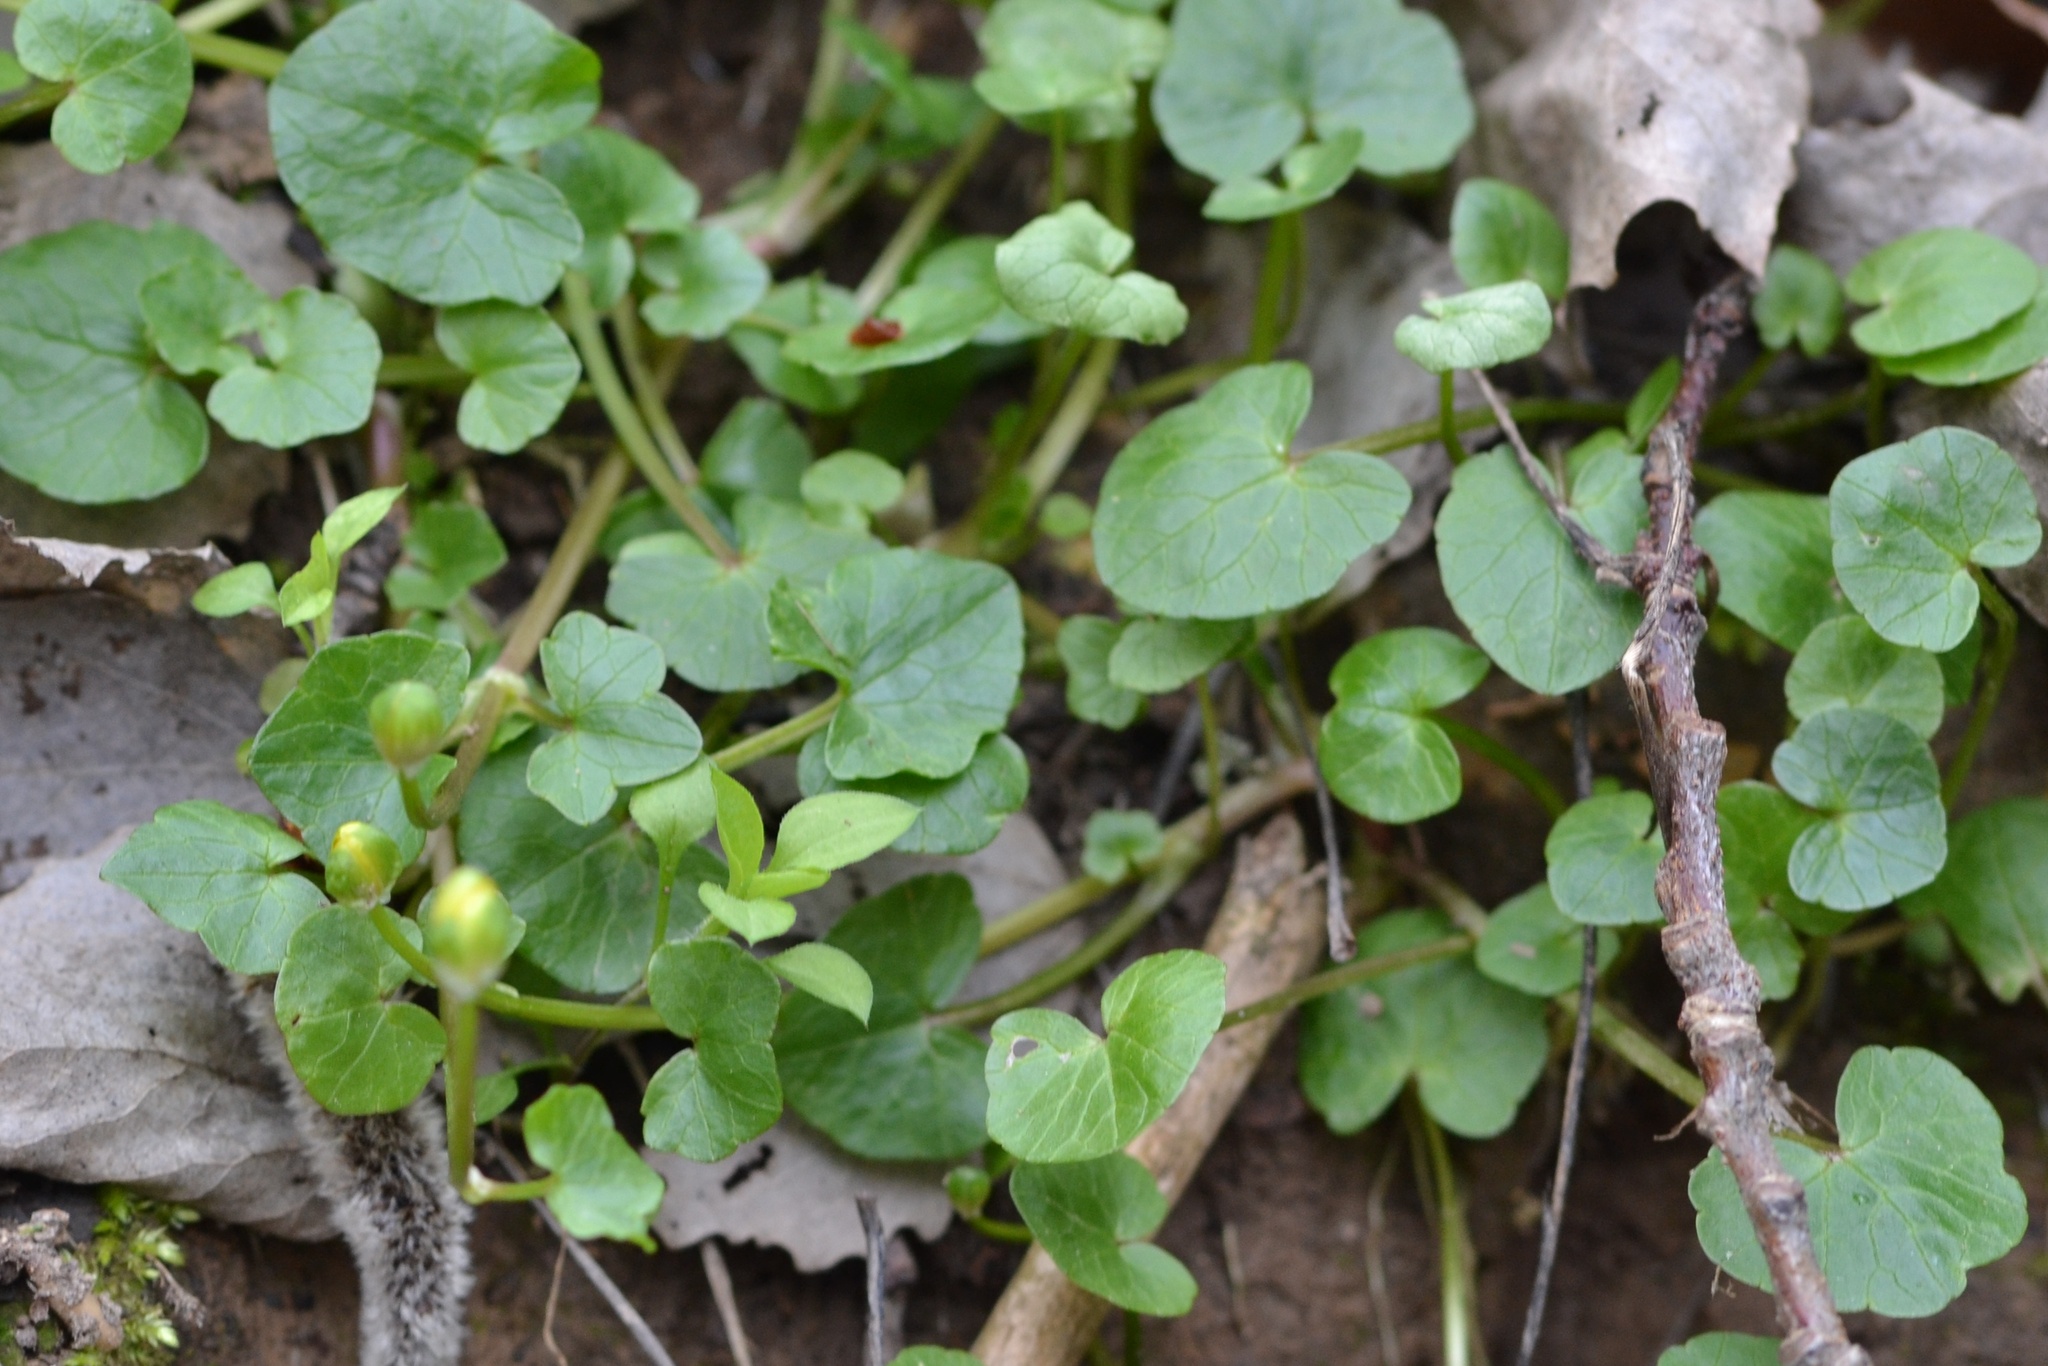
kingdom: Plantae
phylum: Tracheophyta
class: Magnoliopsida
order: Ranunculales
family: Ranunculaceae
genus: Ficaria
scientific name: Ficaria verna
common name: Lesser celandine
